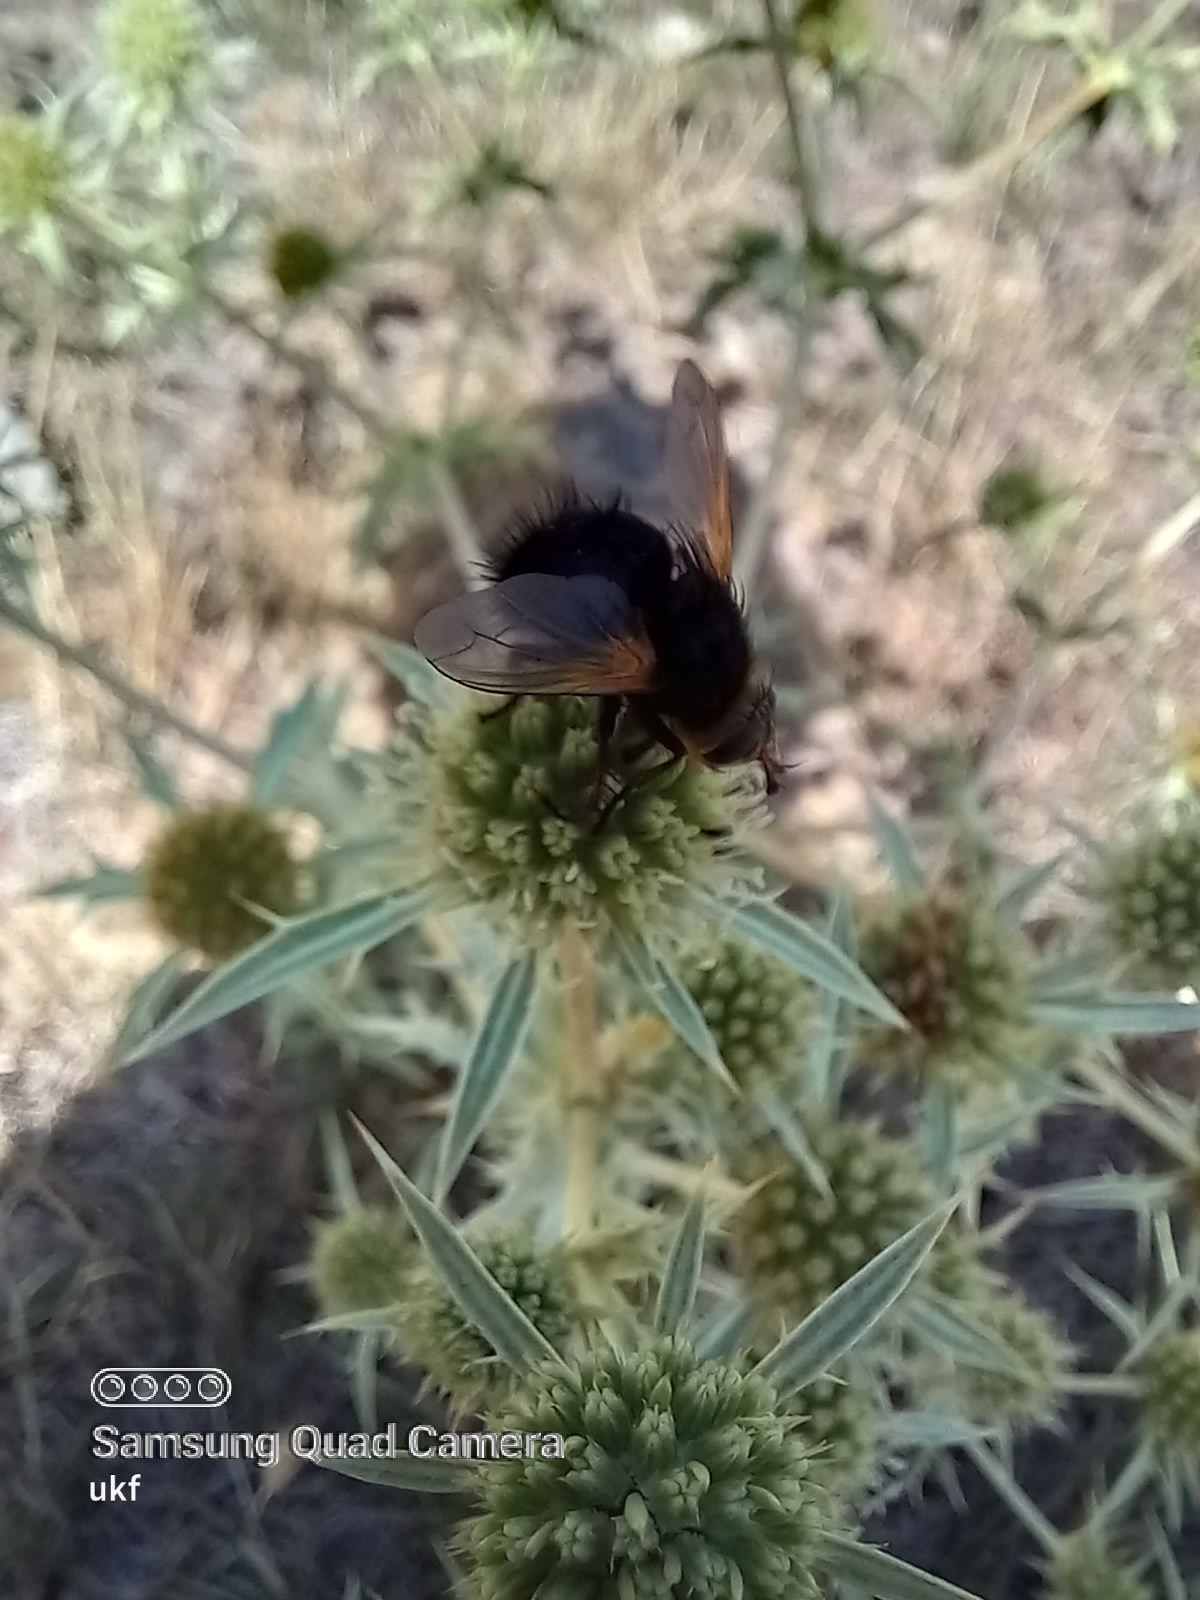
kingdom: Animalia
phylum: Arthropoda
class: Insecta
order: Diptera
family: Tachinidae
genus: Tachina
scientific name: Tachina grossa
